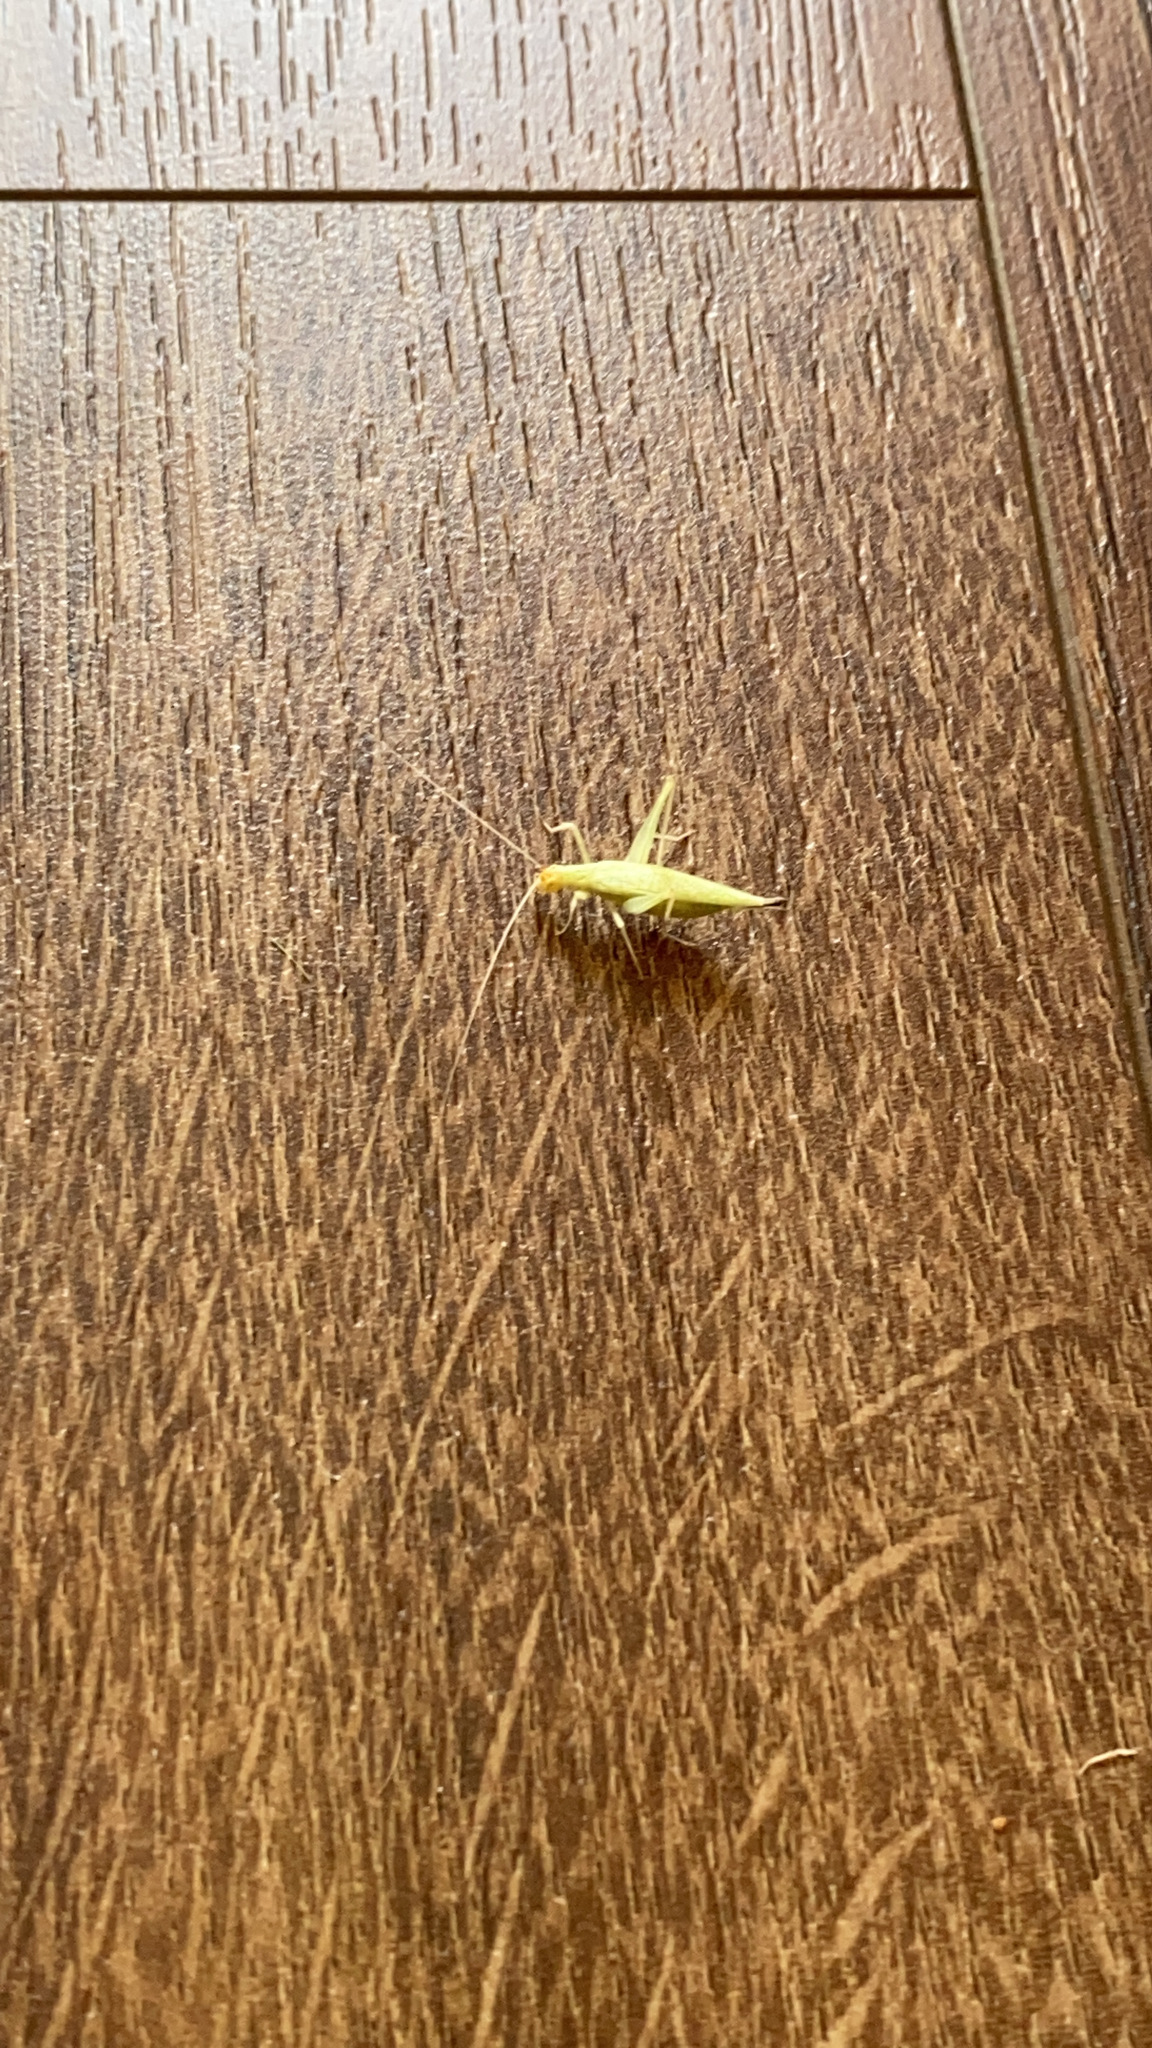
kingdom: Animalia
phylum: Arthropoda
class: Insecta
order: Orthoptera
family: Gryllidae
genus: Oecanthus
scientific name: Oecanthus
